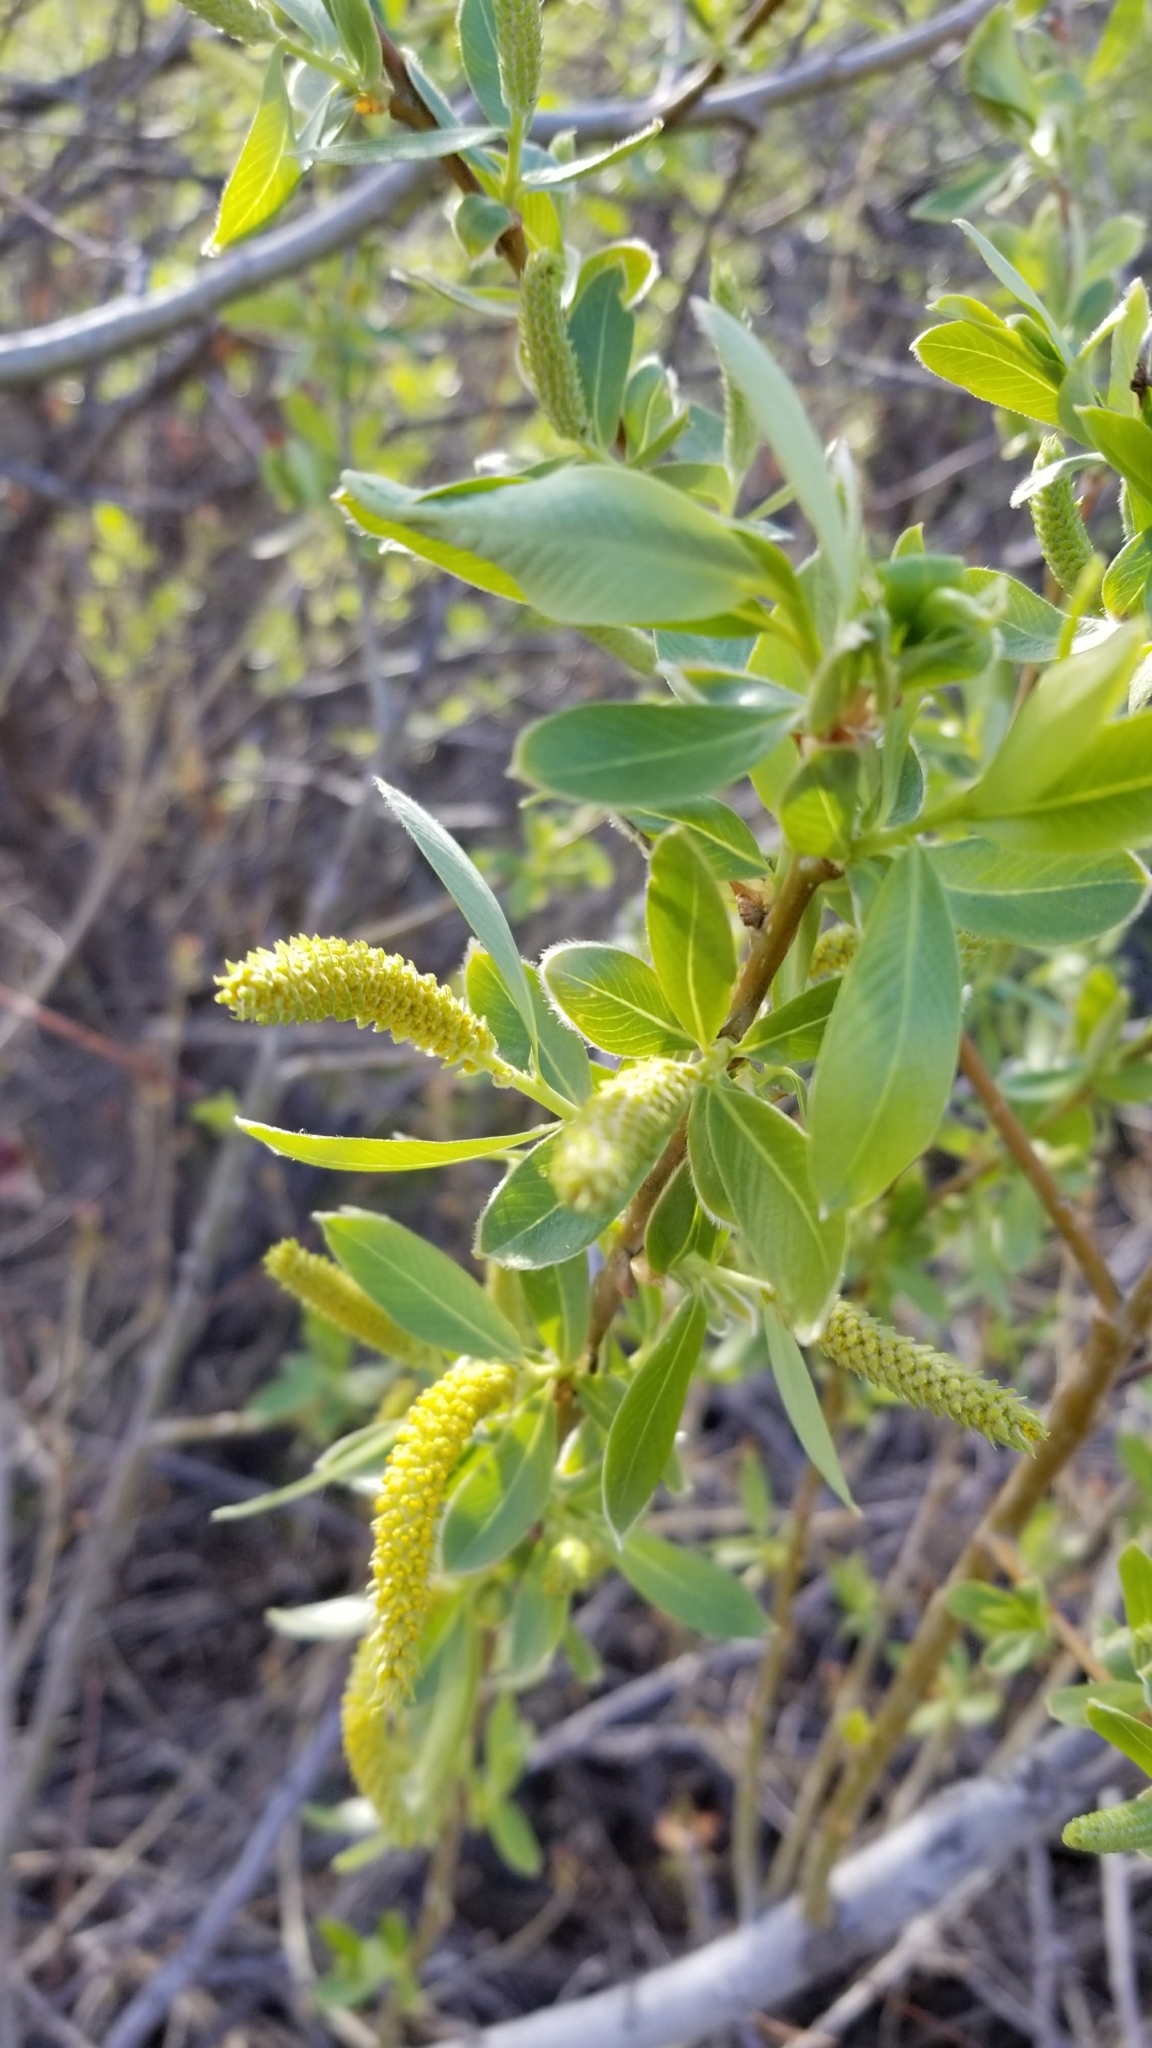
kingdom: Plantae
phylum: Tracheophyta
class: Magnoliopsida
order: Malpighiales
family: Salicaceae
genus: Salix
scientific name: Salix lasiolepis
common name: Arroyo willow
